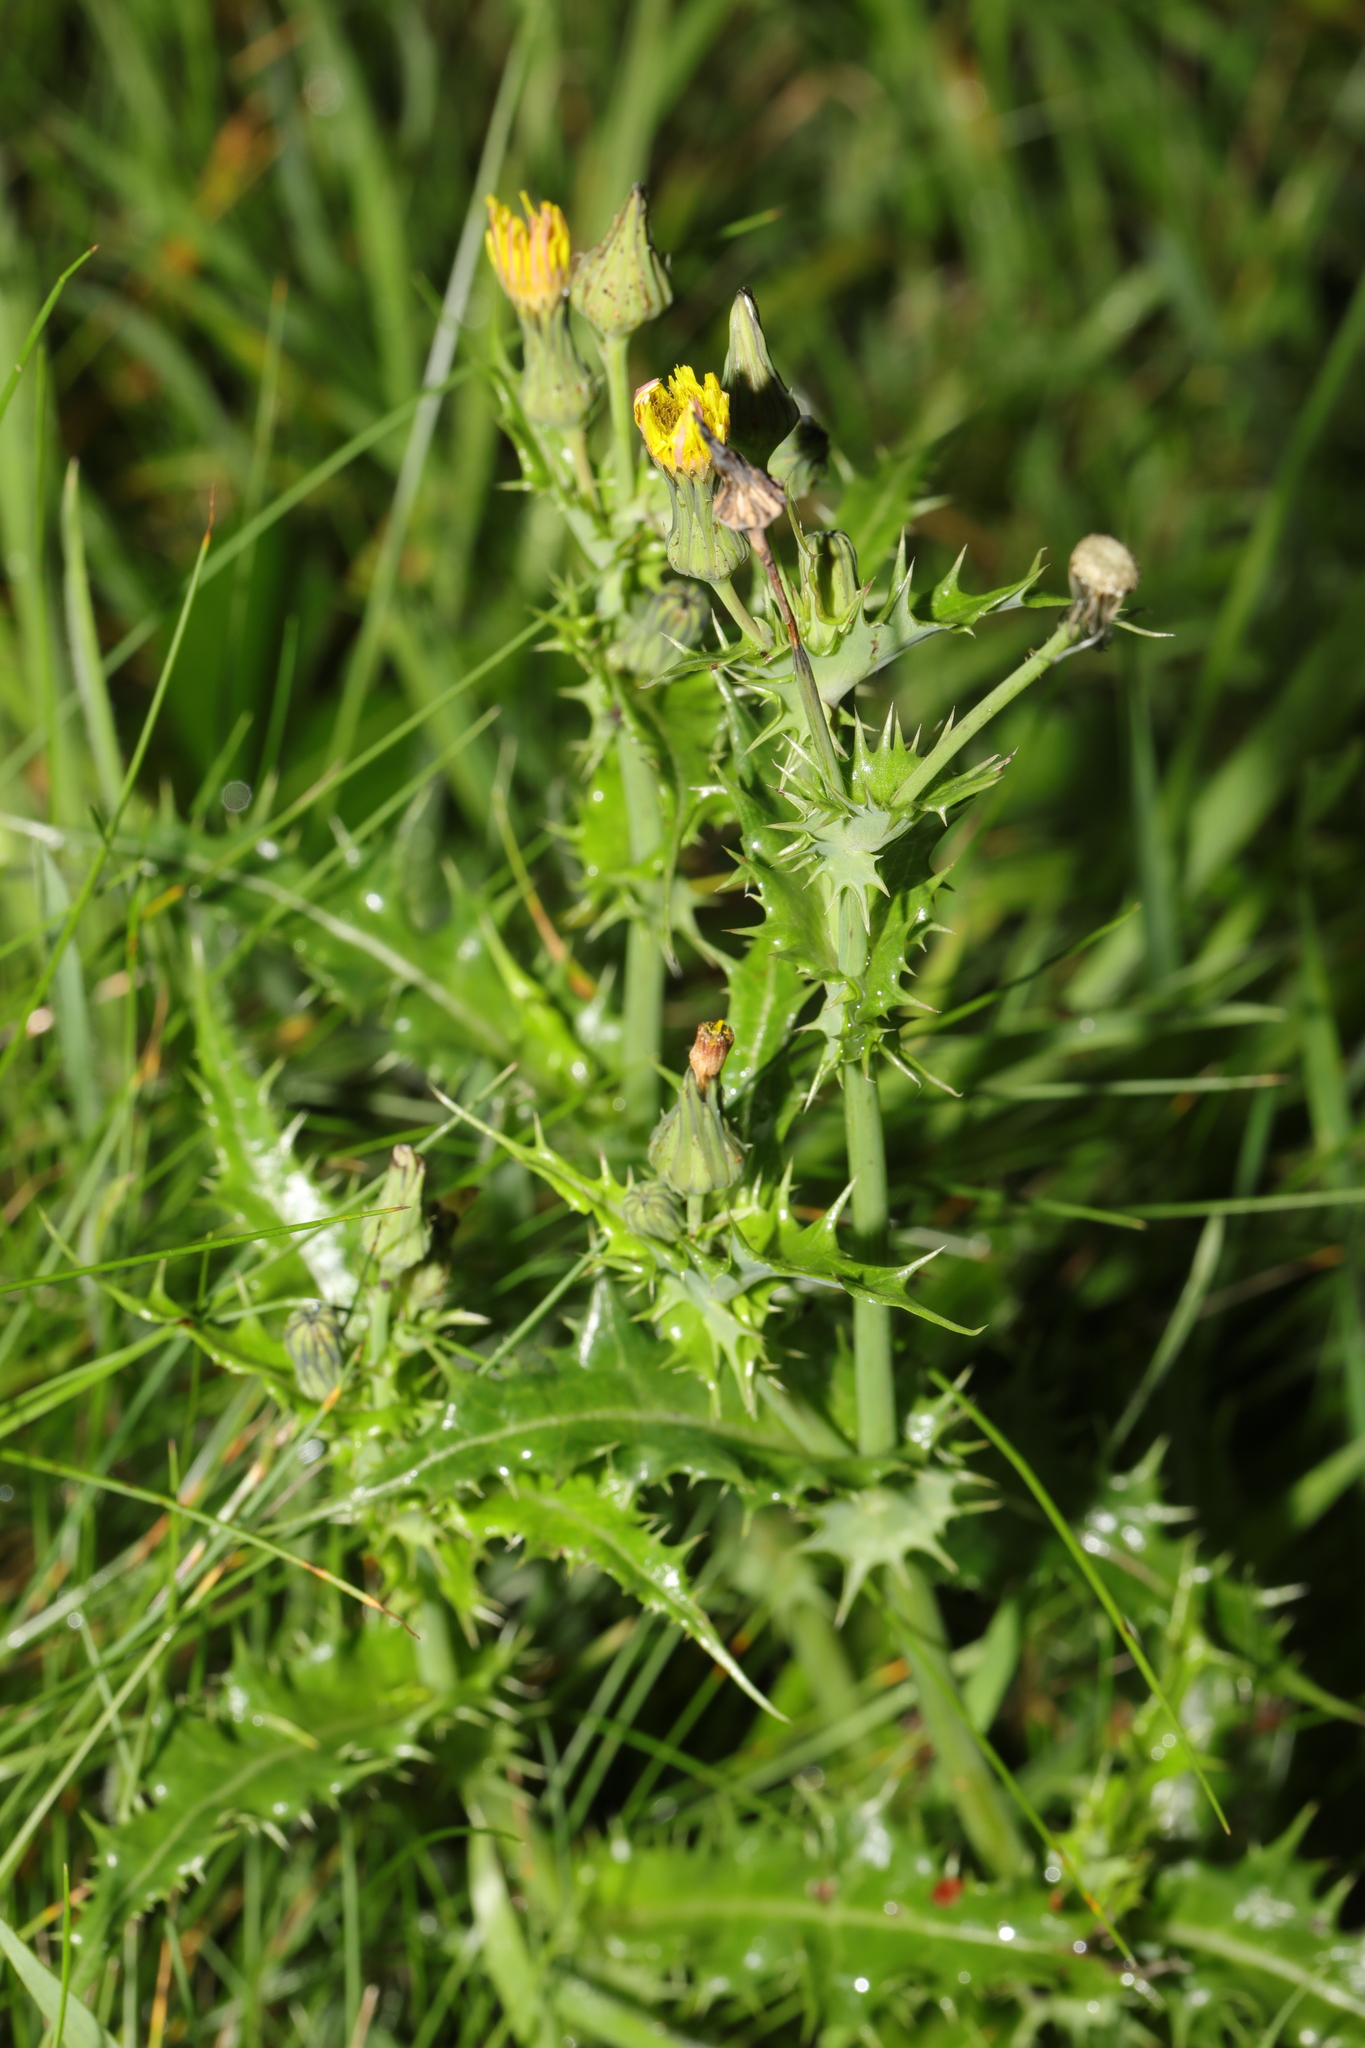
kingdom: Plantae
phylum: Tracheophyta
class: Magnoliopsida
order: Asterales
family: Asteraceae
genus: Sonchus
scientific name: Sonchus asper
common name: Prickly sow-thistle
